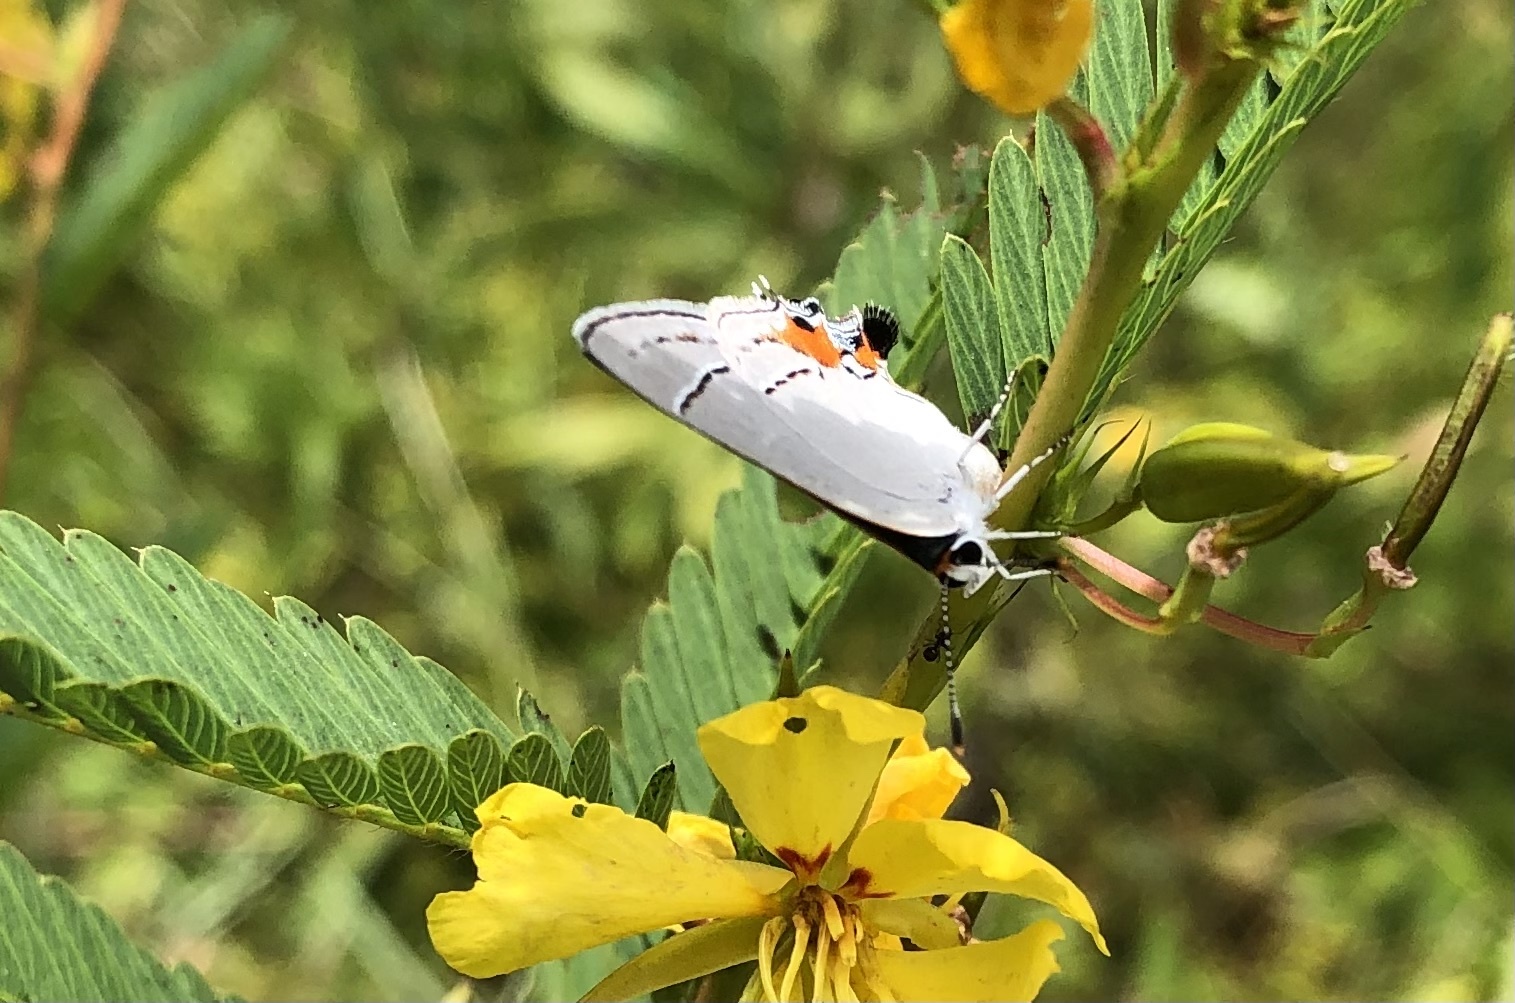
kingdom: Animalia
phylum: Arthropoda
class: Insecta
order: Lepidoptera
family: Lycaenidae
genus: Strymon
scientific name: Strymon melinus
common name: Gray hairstreak
